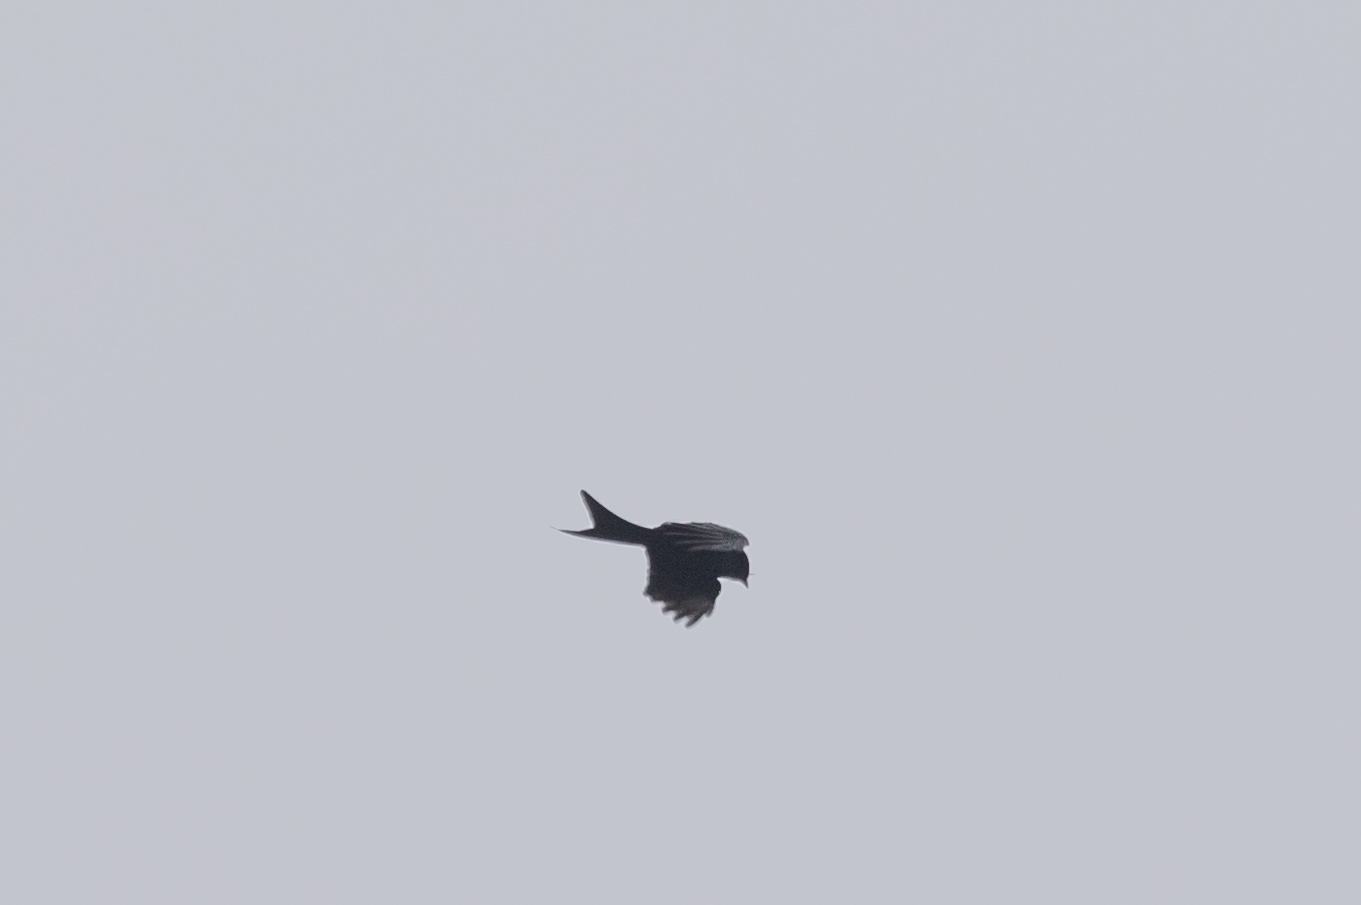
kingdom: Animalia
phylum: Chordata
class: Aves
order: Passeriformes
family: Dicruridae
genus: Dicrurus
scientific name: Dicrurus macrocercus
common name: Black drongo
